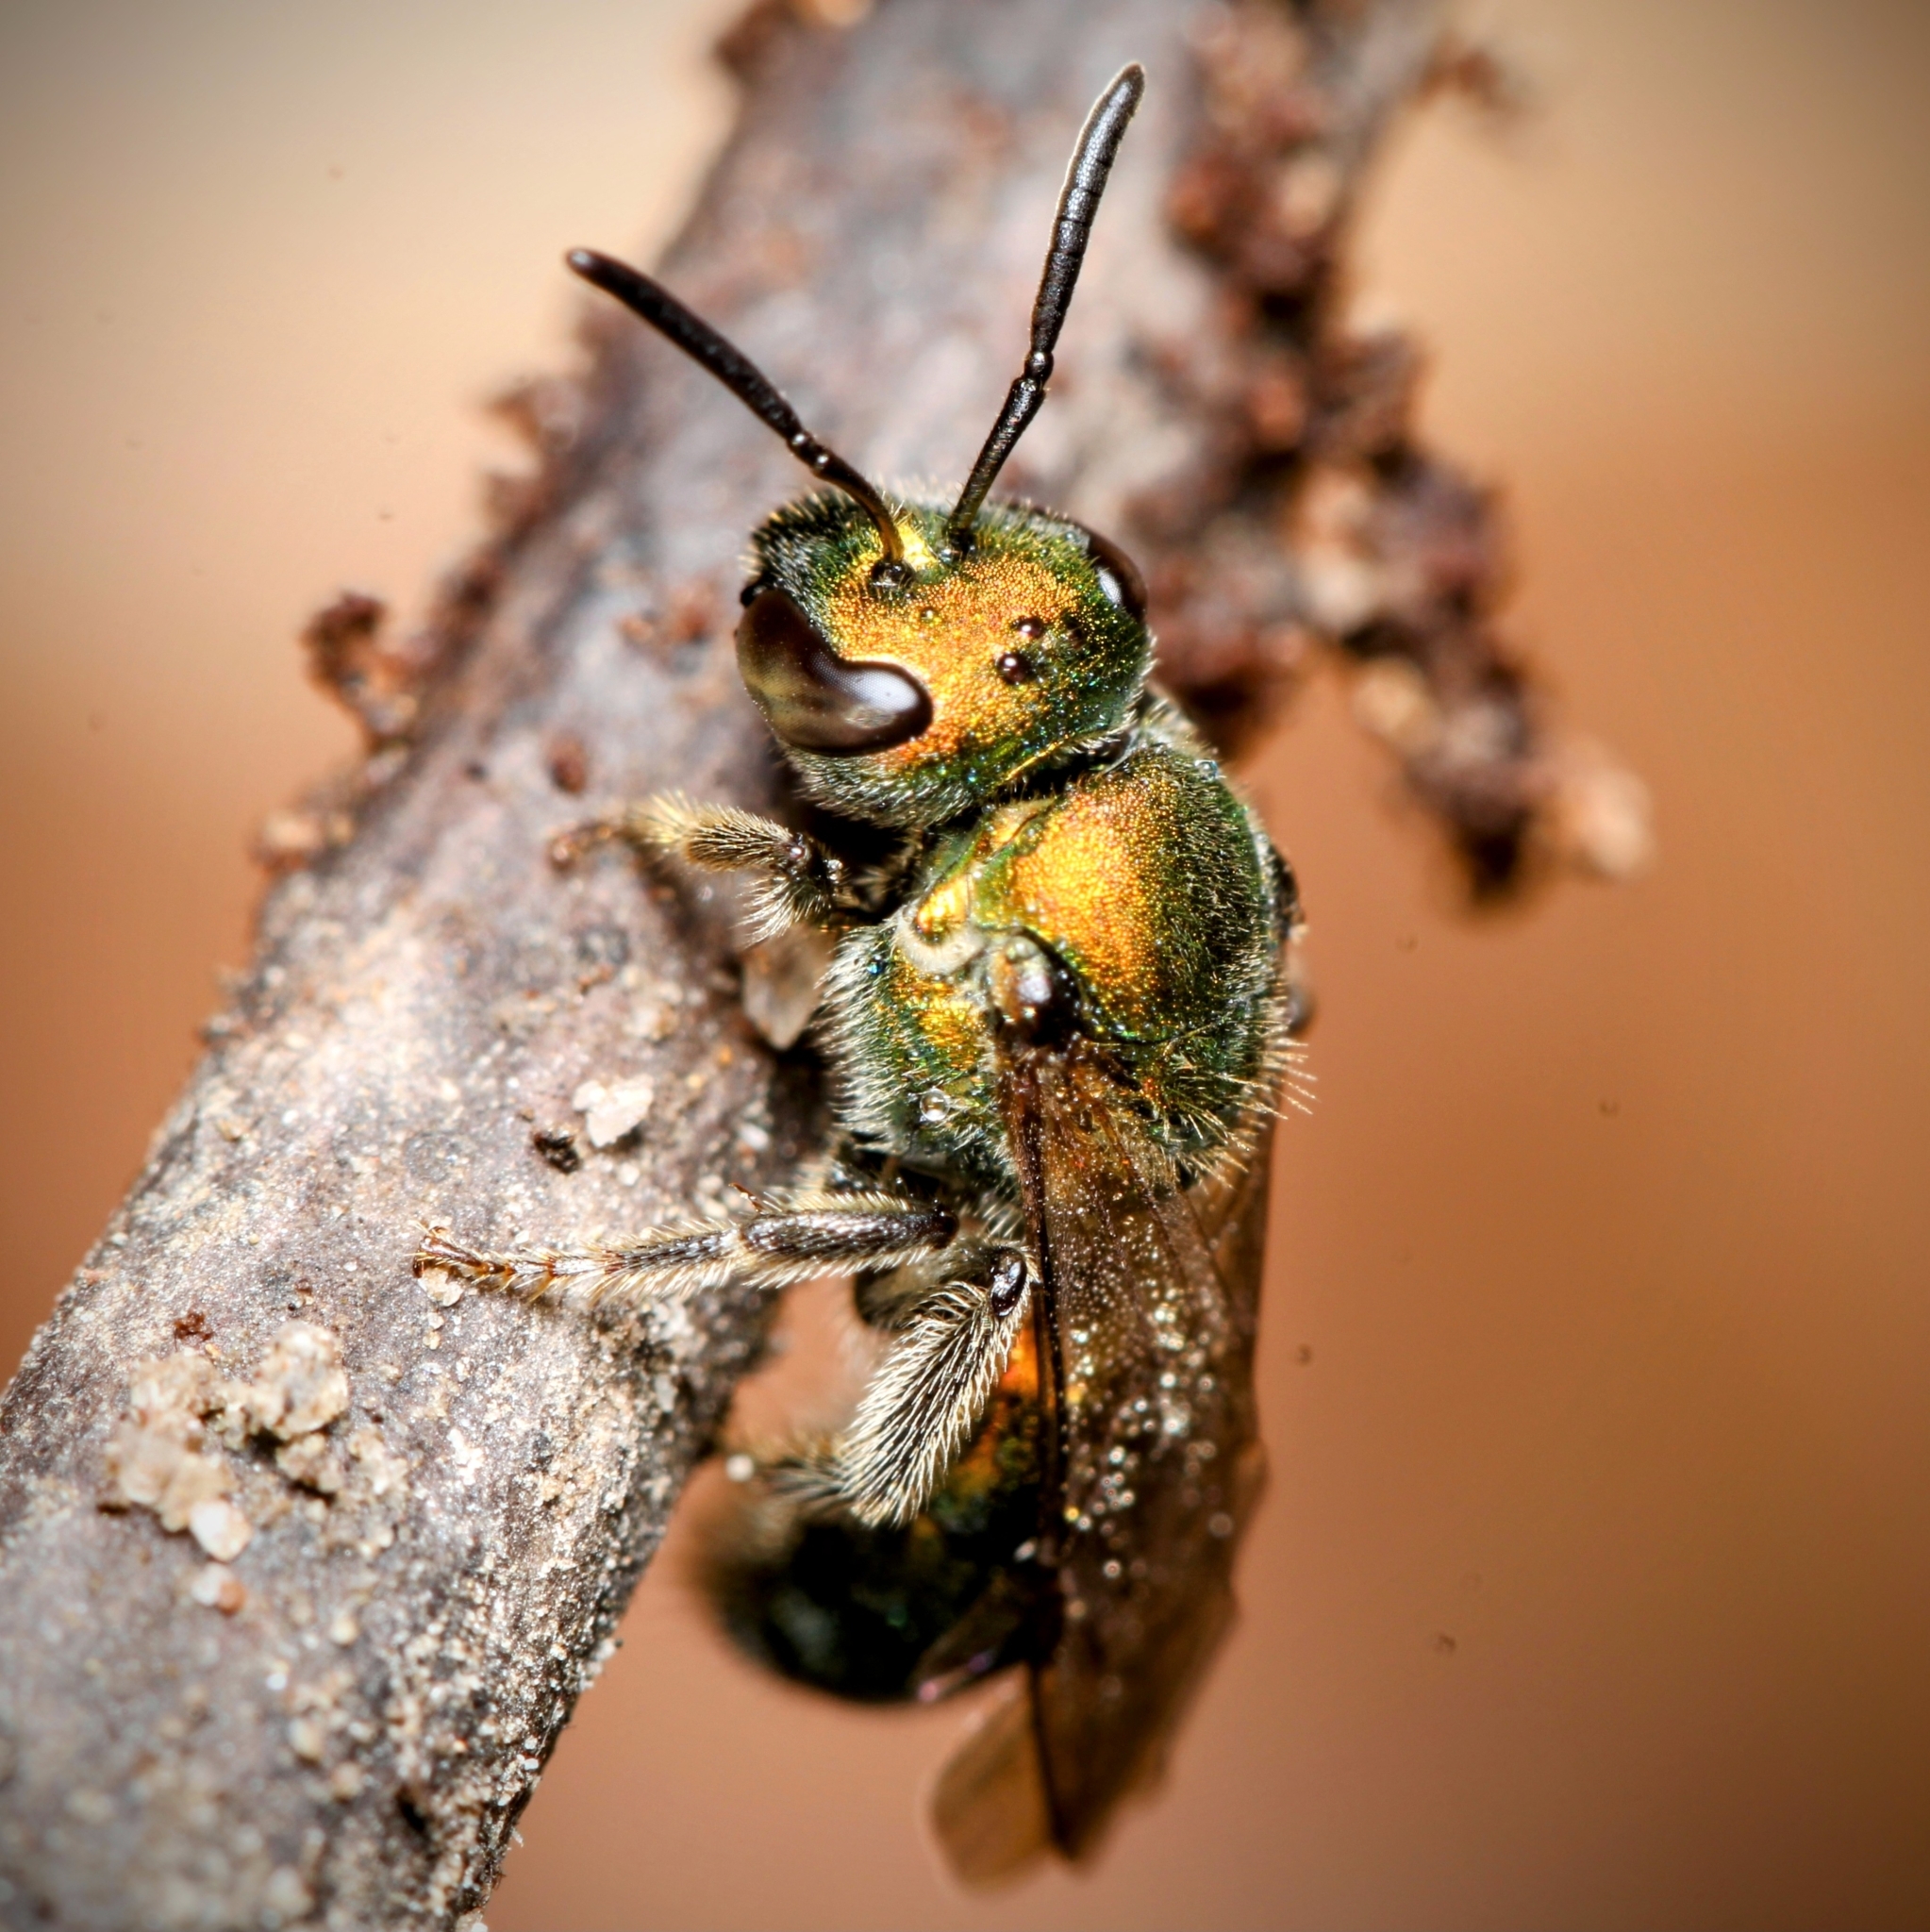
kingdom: Animalia
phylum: Arthropoda
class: Insecta
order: Hymenoptera
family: Halictidae
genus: Augochlora
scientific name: Augochlora pura
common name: Pure green sweat bee
